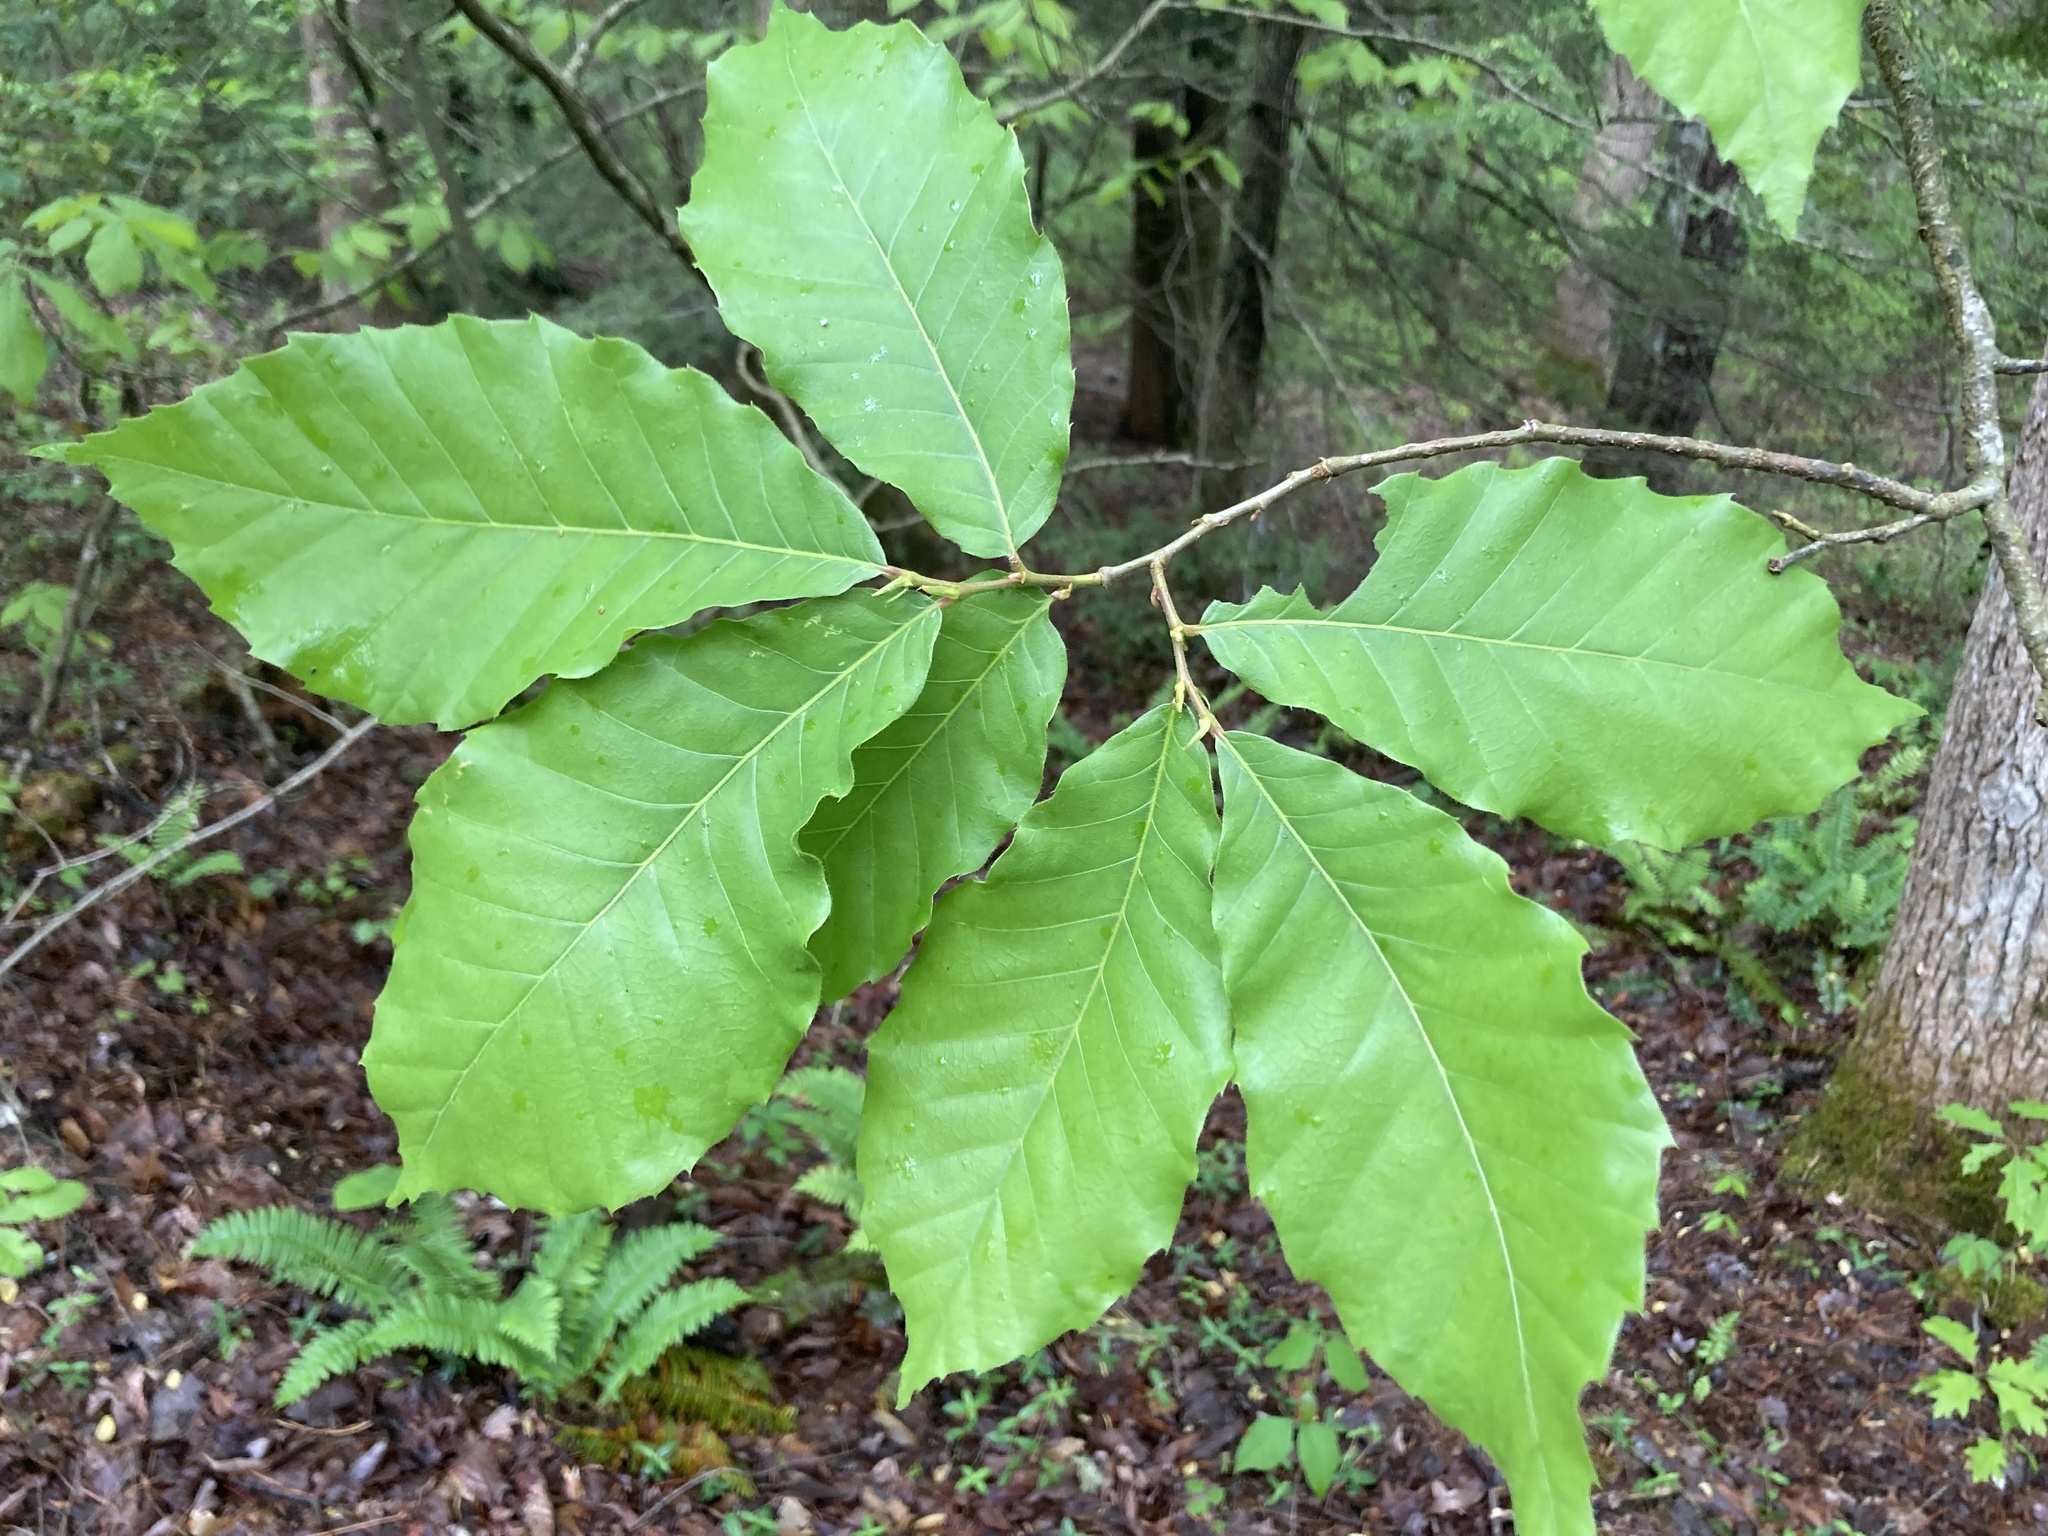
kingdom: Plantae
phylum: Tracheophyta
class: Magnoliopsida
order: Fagales
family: Fagaceae
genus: Castanea
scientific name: Castanea mollissima
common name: Chinese chestnut
